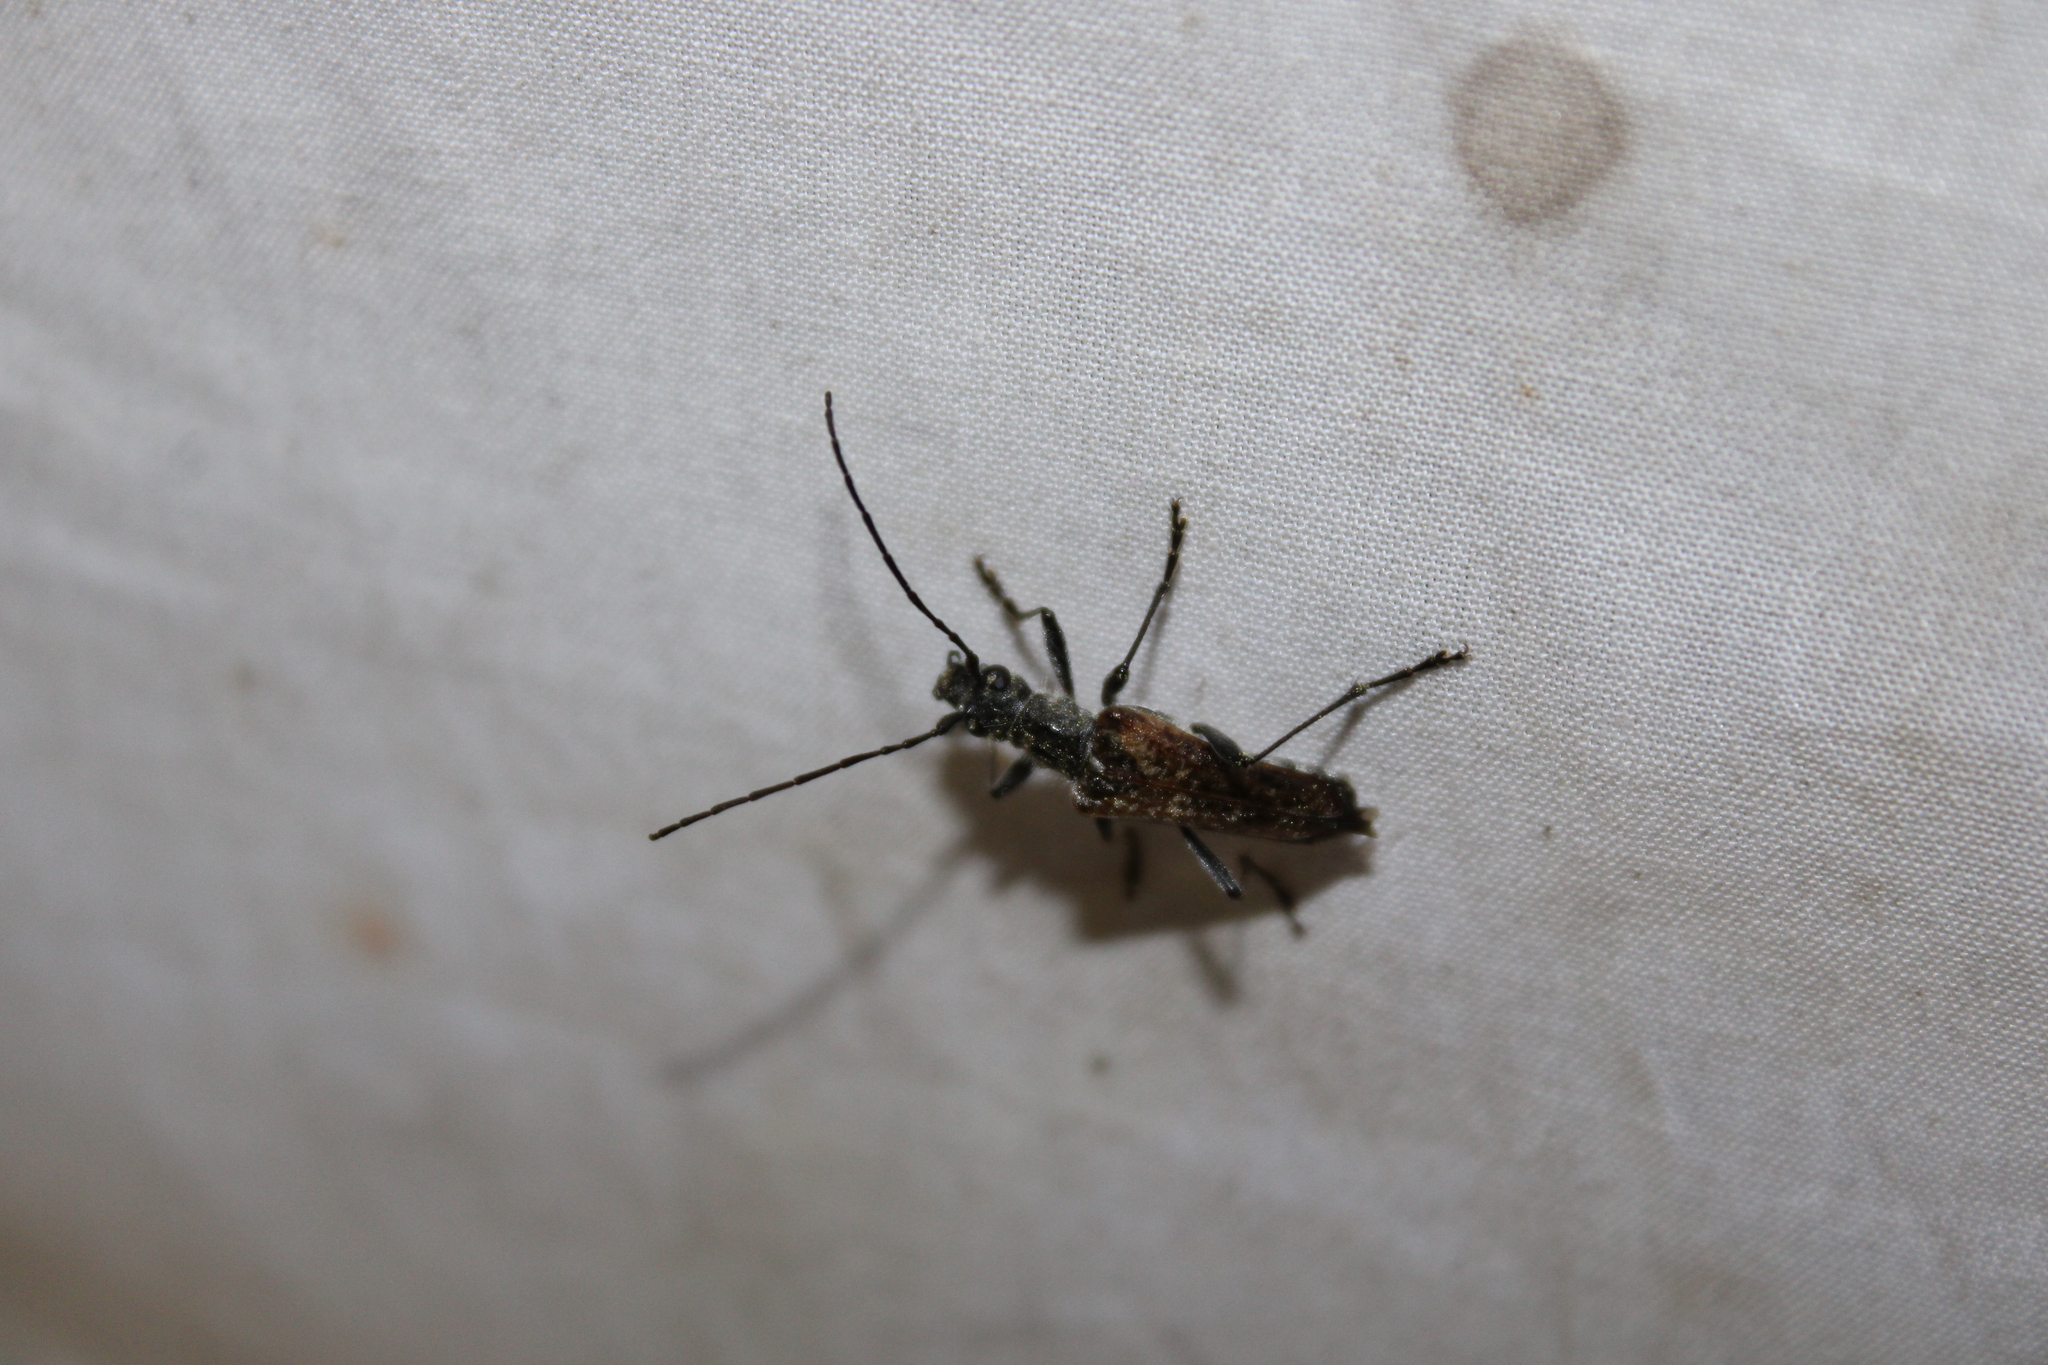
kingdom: Animalia
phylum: Arthropoda
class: Insecta
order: Coleoptera
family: Cerambycidae
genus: Anthophylax
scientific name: Anthophylax attenuatus
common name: Mottled longhorned beetle
